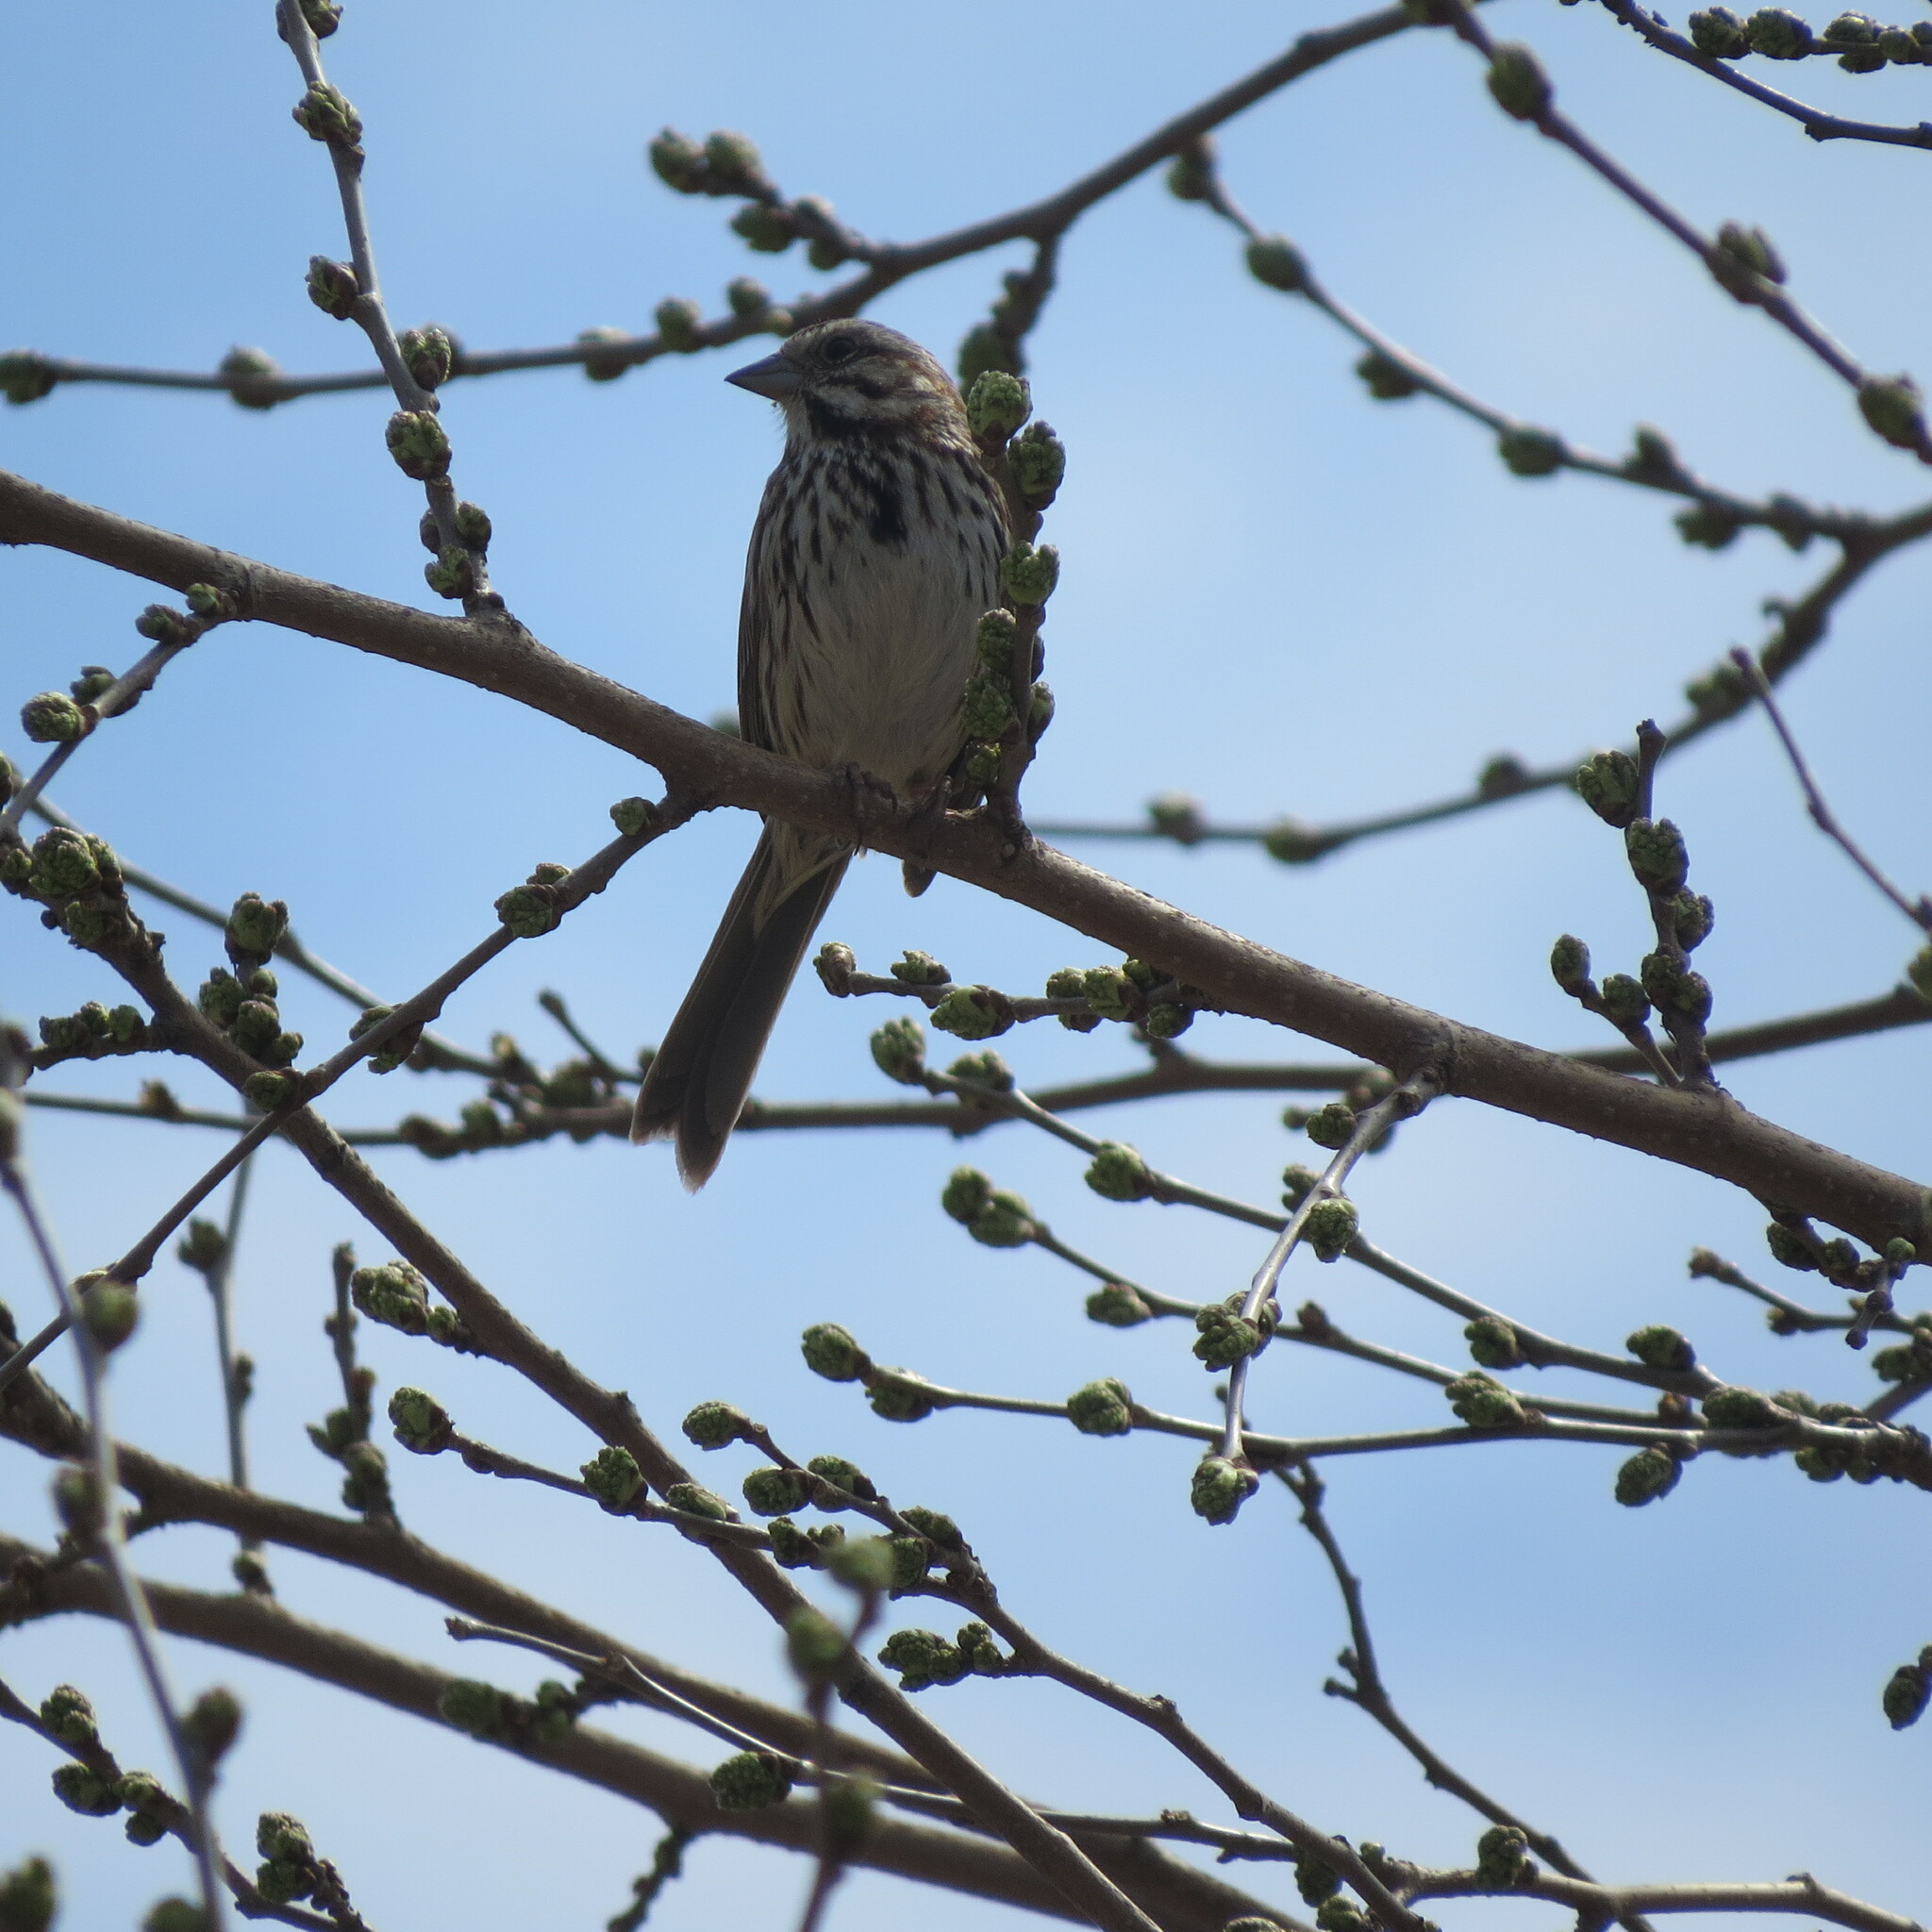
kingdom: Animalia
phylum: Chordata
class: Aves
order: Passeriformes
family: Passerellidae
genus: Melospiza
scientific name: Melospiza melodia
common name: Song sparrow
